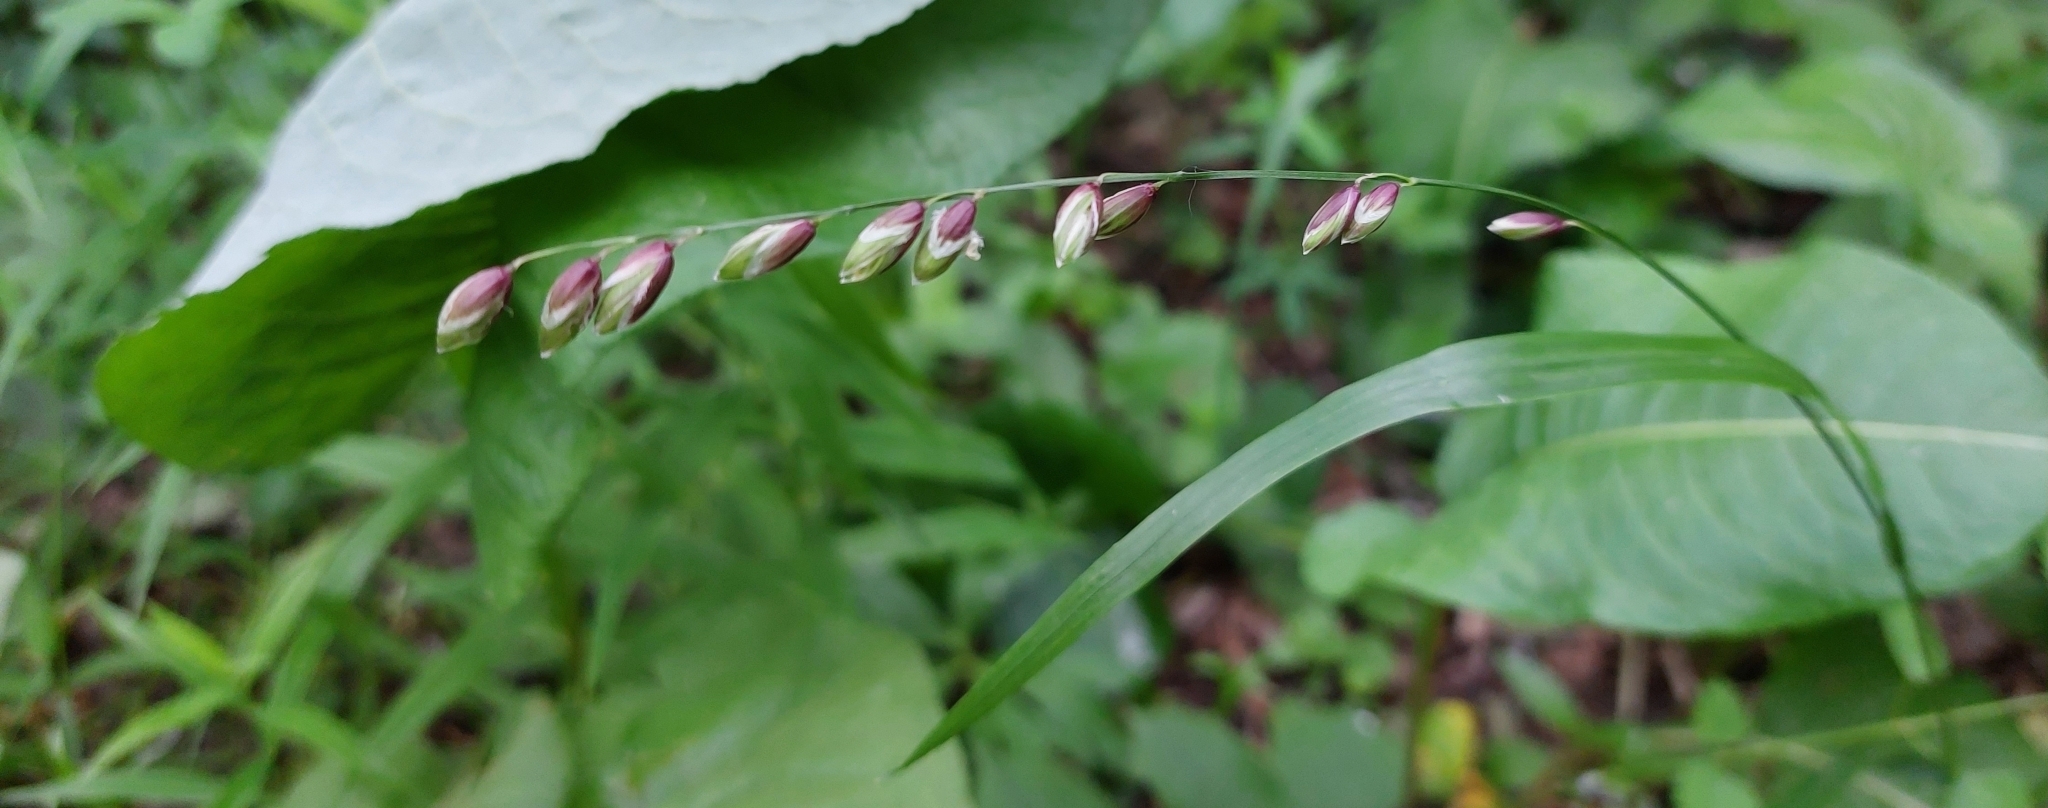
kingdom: Plantae
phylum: Tracheophyta
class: Liliopsida
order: Poales
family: Poaceae
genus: Melica
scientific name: Melica nutans
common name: Mountain melick
